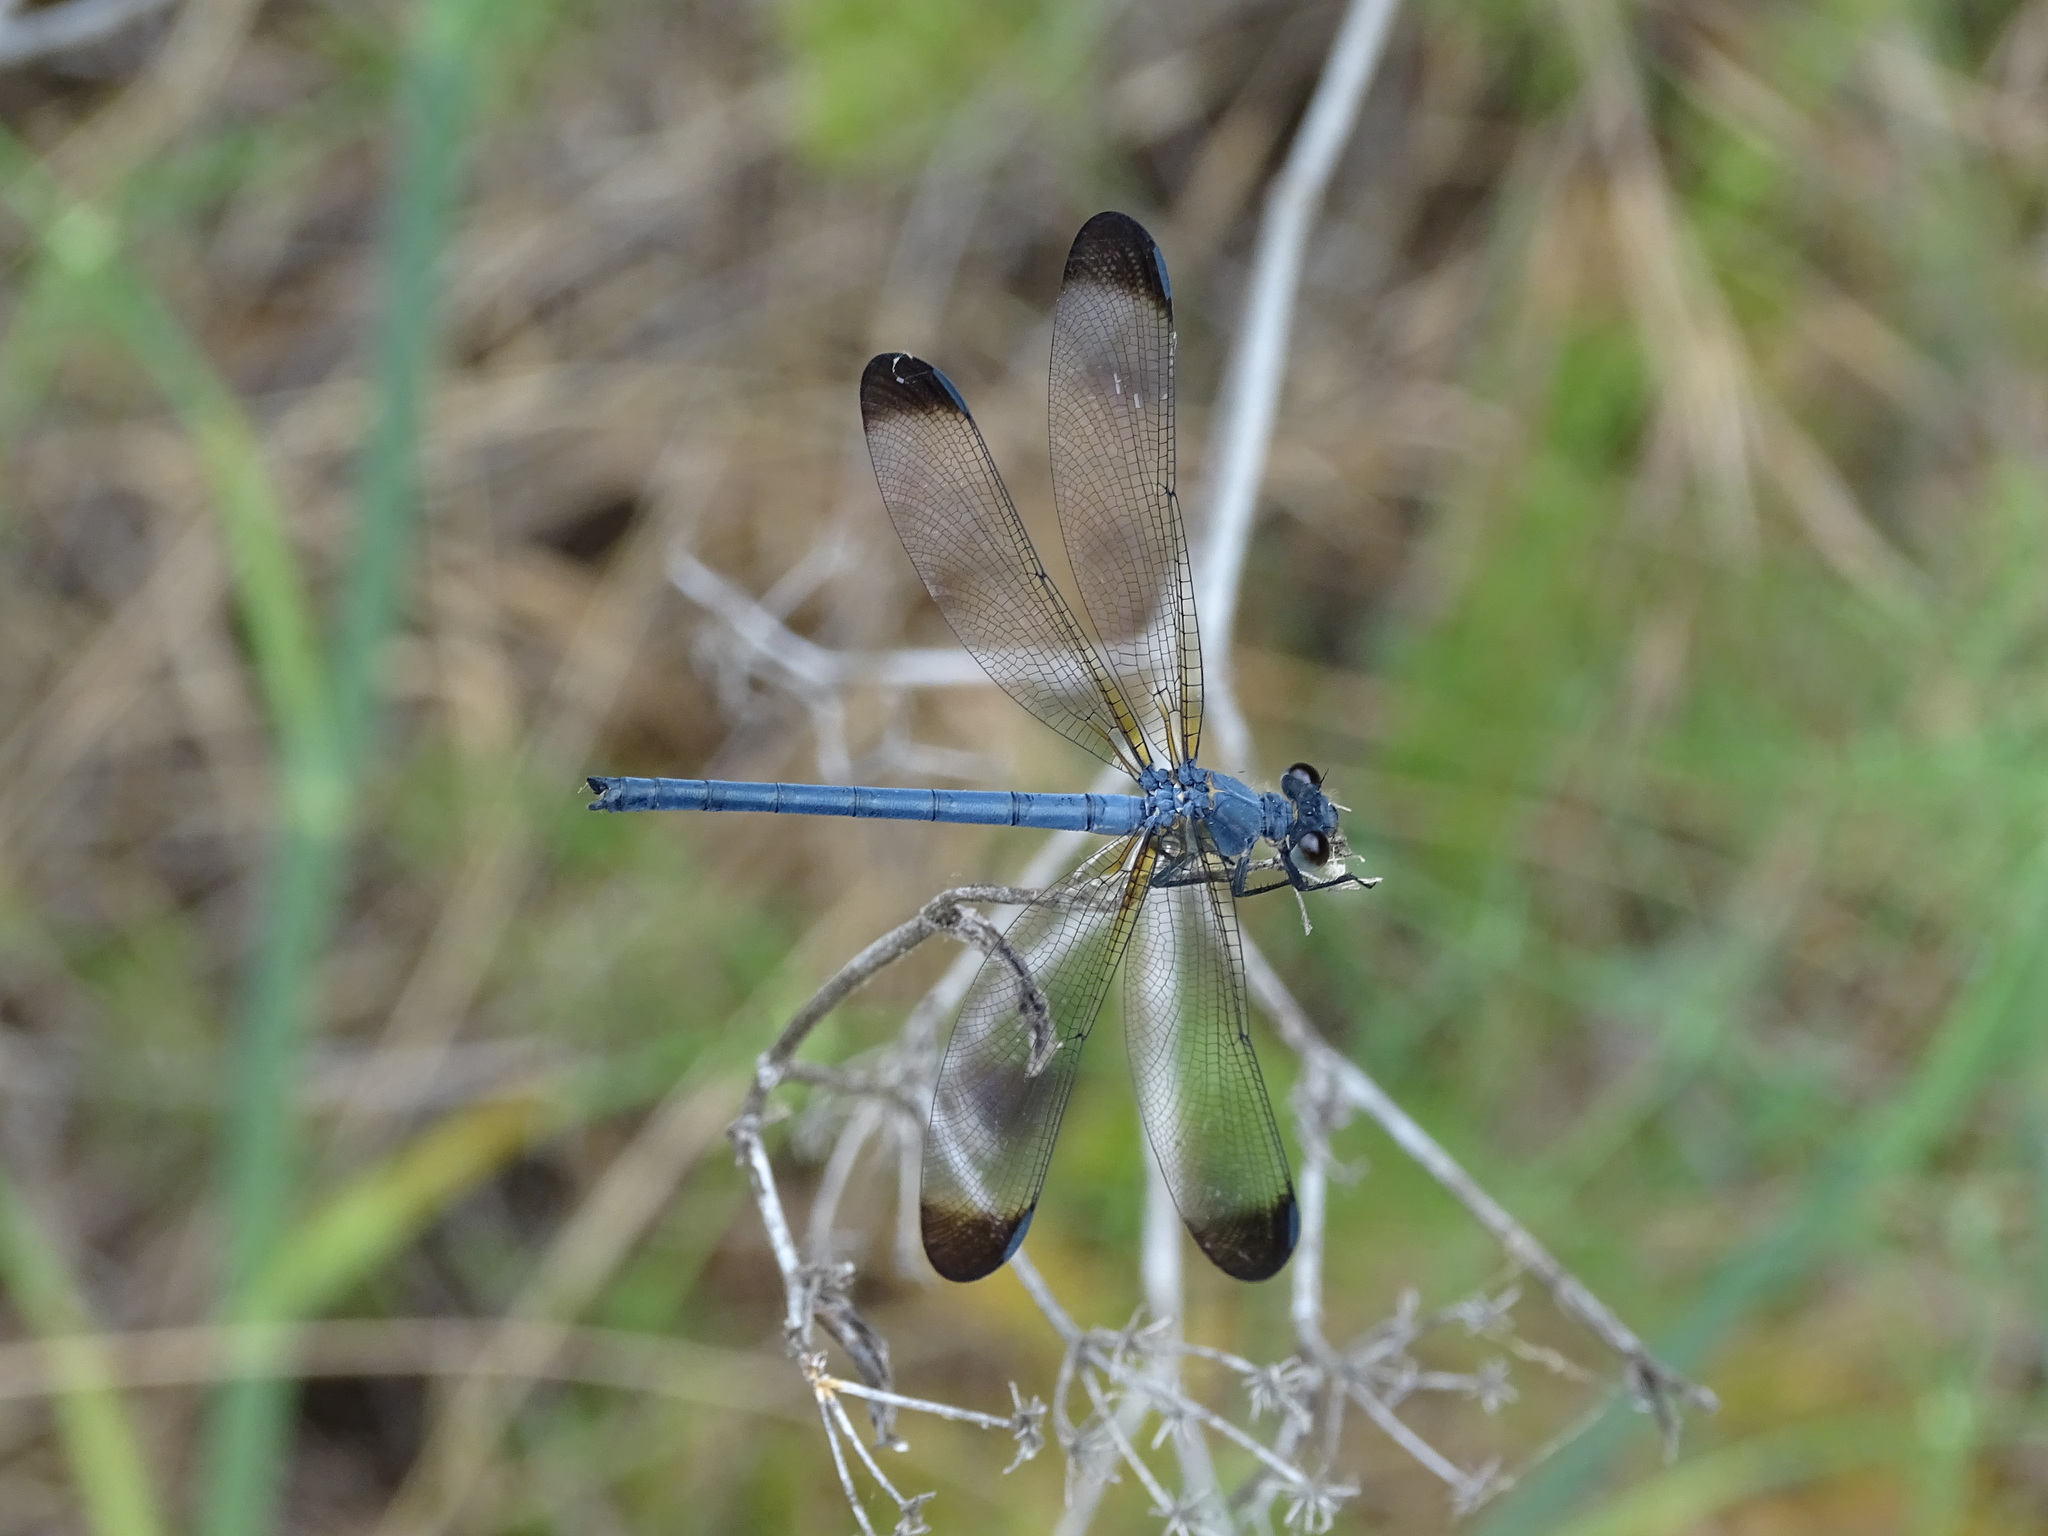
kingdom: Animalia
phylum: Arthropoda
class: Insecta
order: Odonata
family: Euphaeidae
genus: Epallage
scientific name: Epallage fatime
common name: Odalisque
